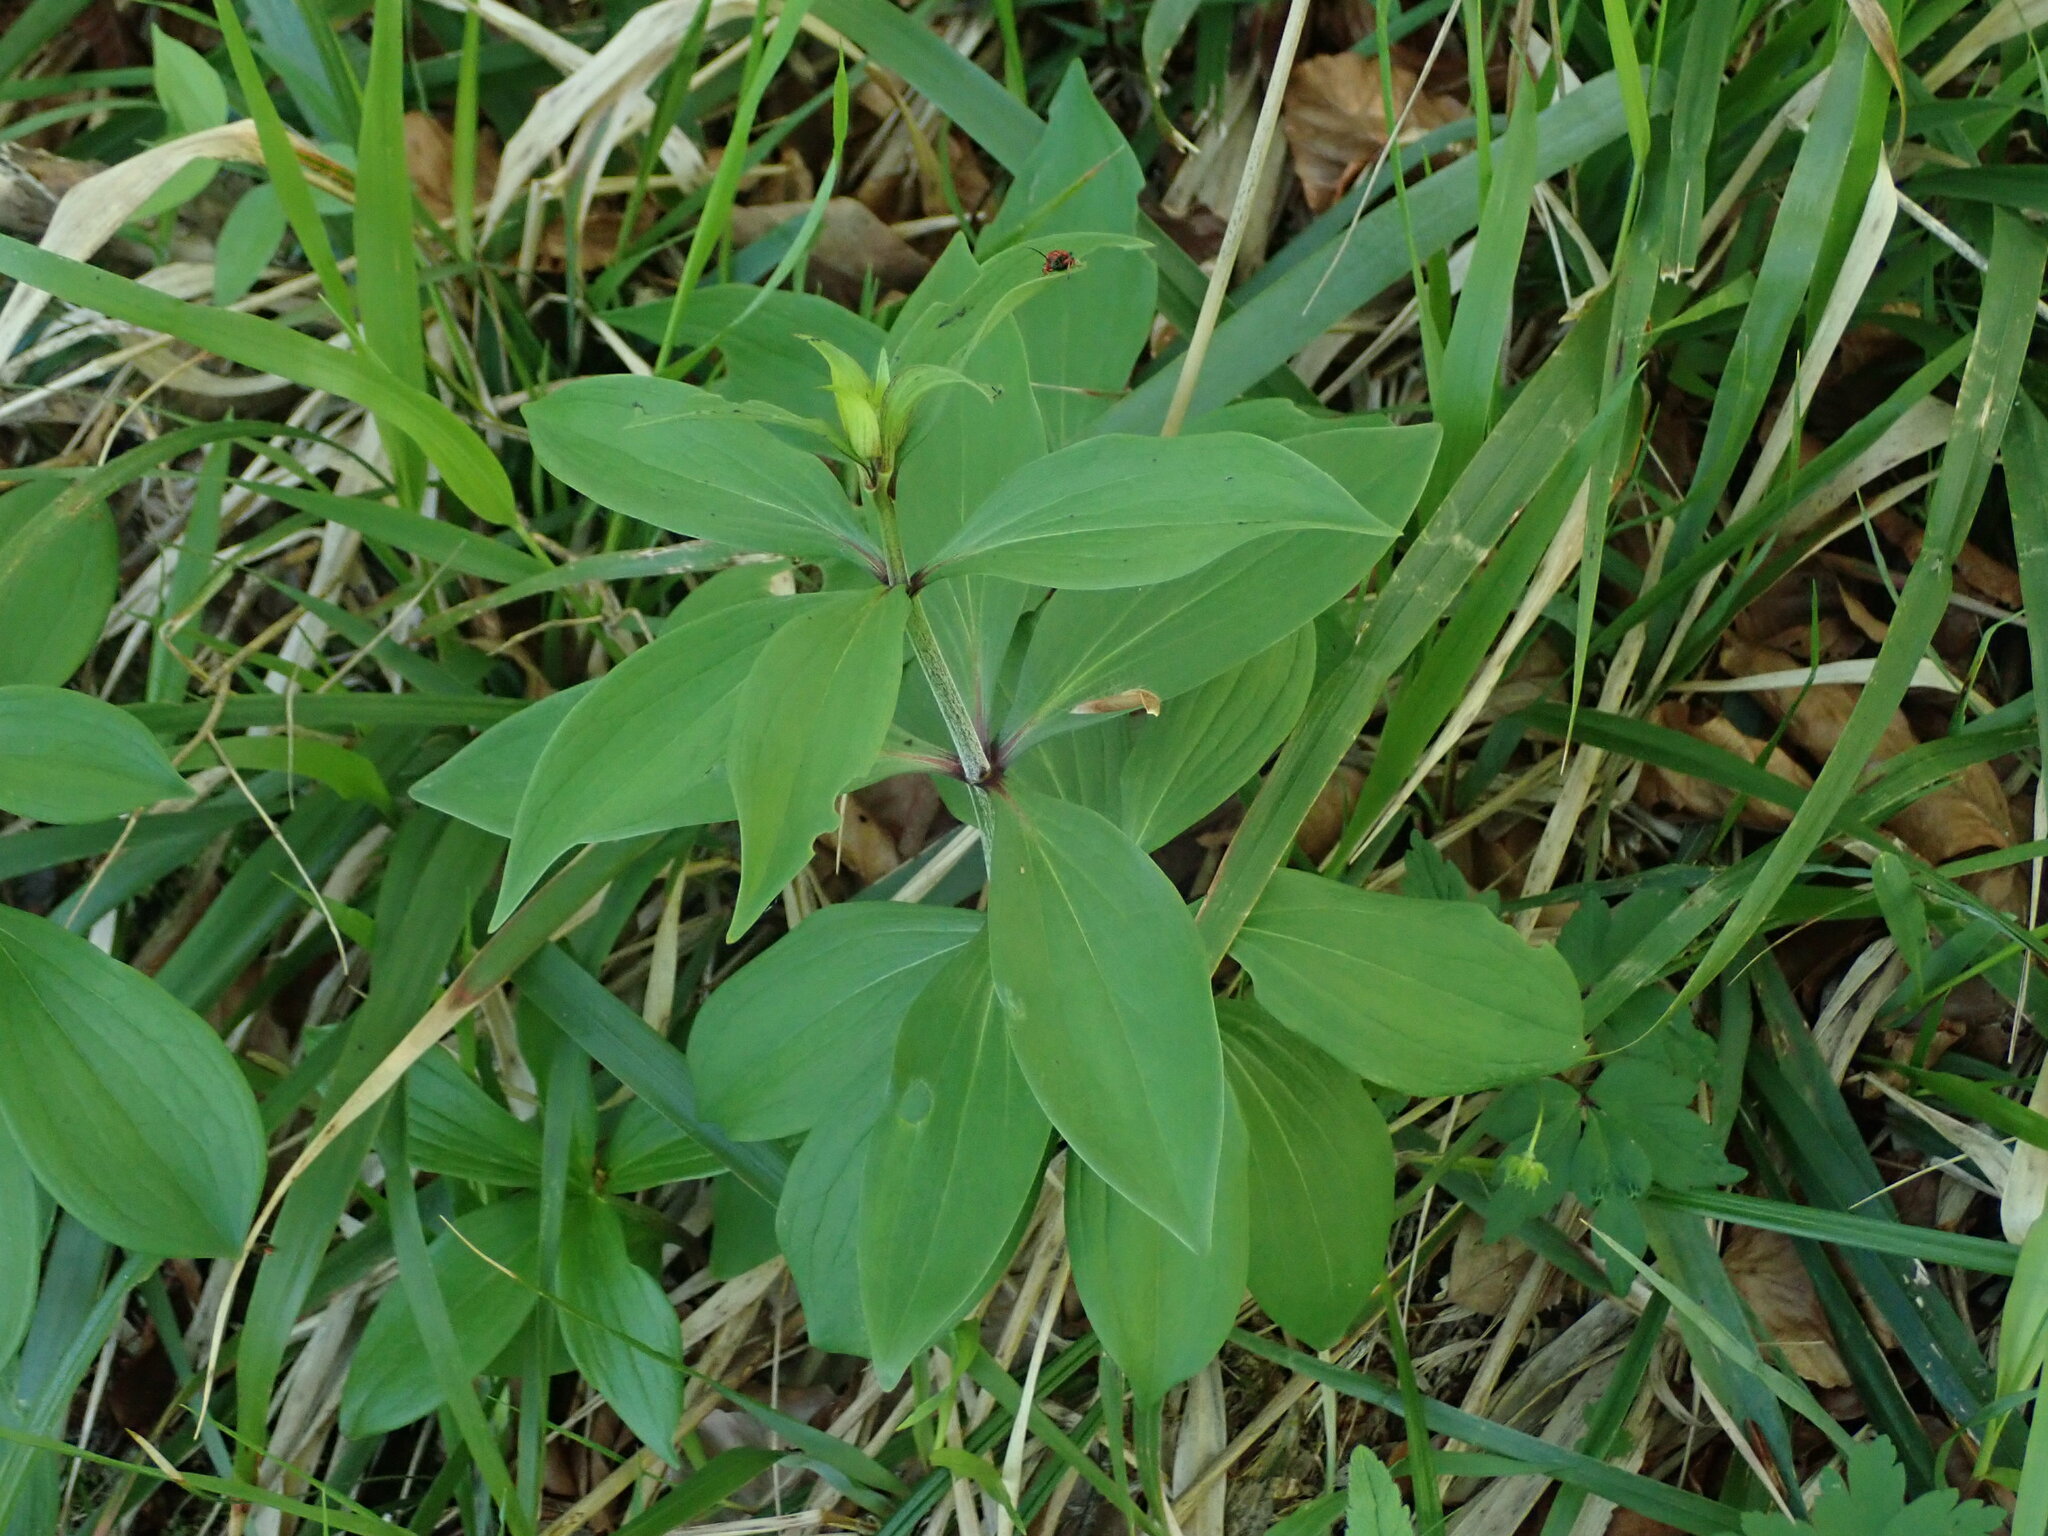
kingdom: Plantae
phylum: Tracheophyta
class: Liliopsida
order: Liliales
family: Liliaceae
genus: Lilium
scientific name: Lilium martagon
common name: Martagon lily
